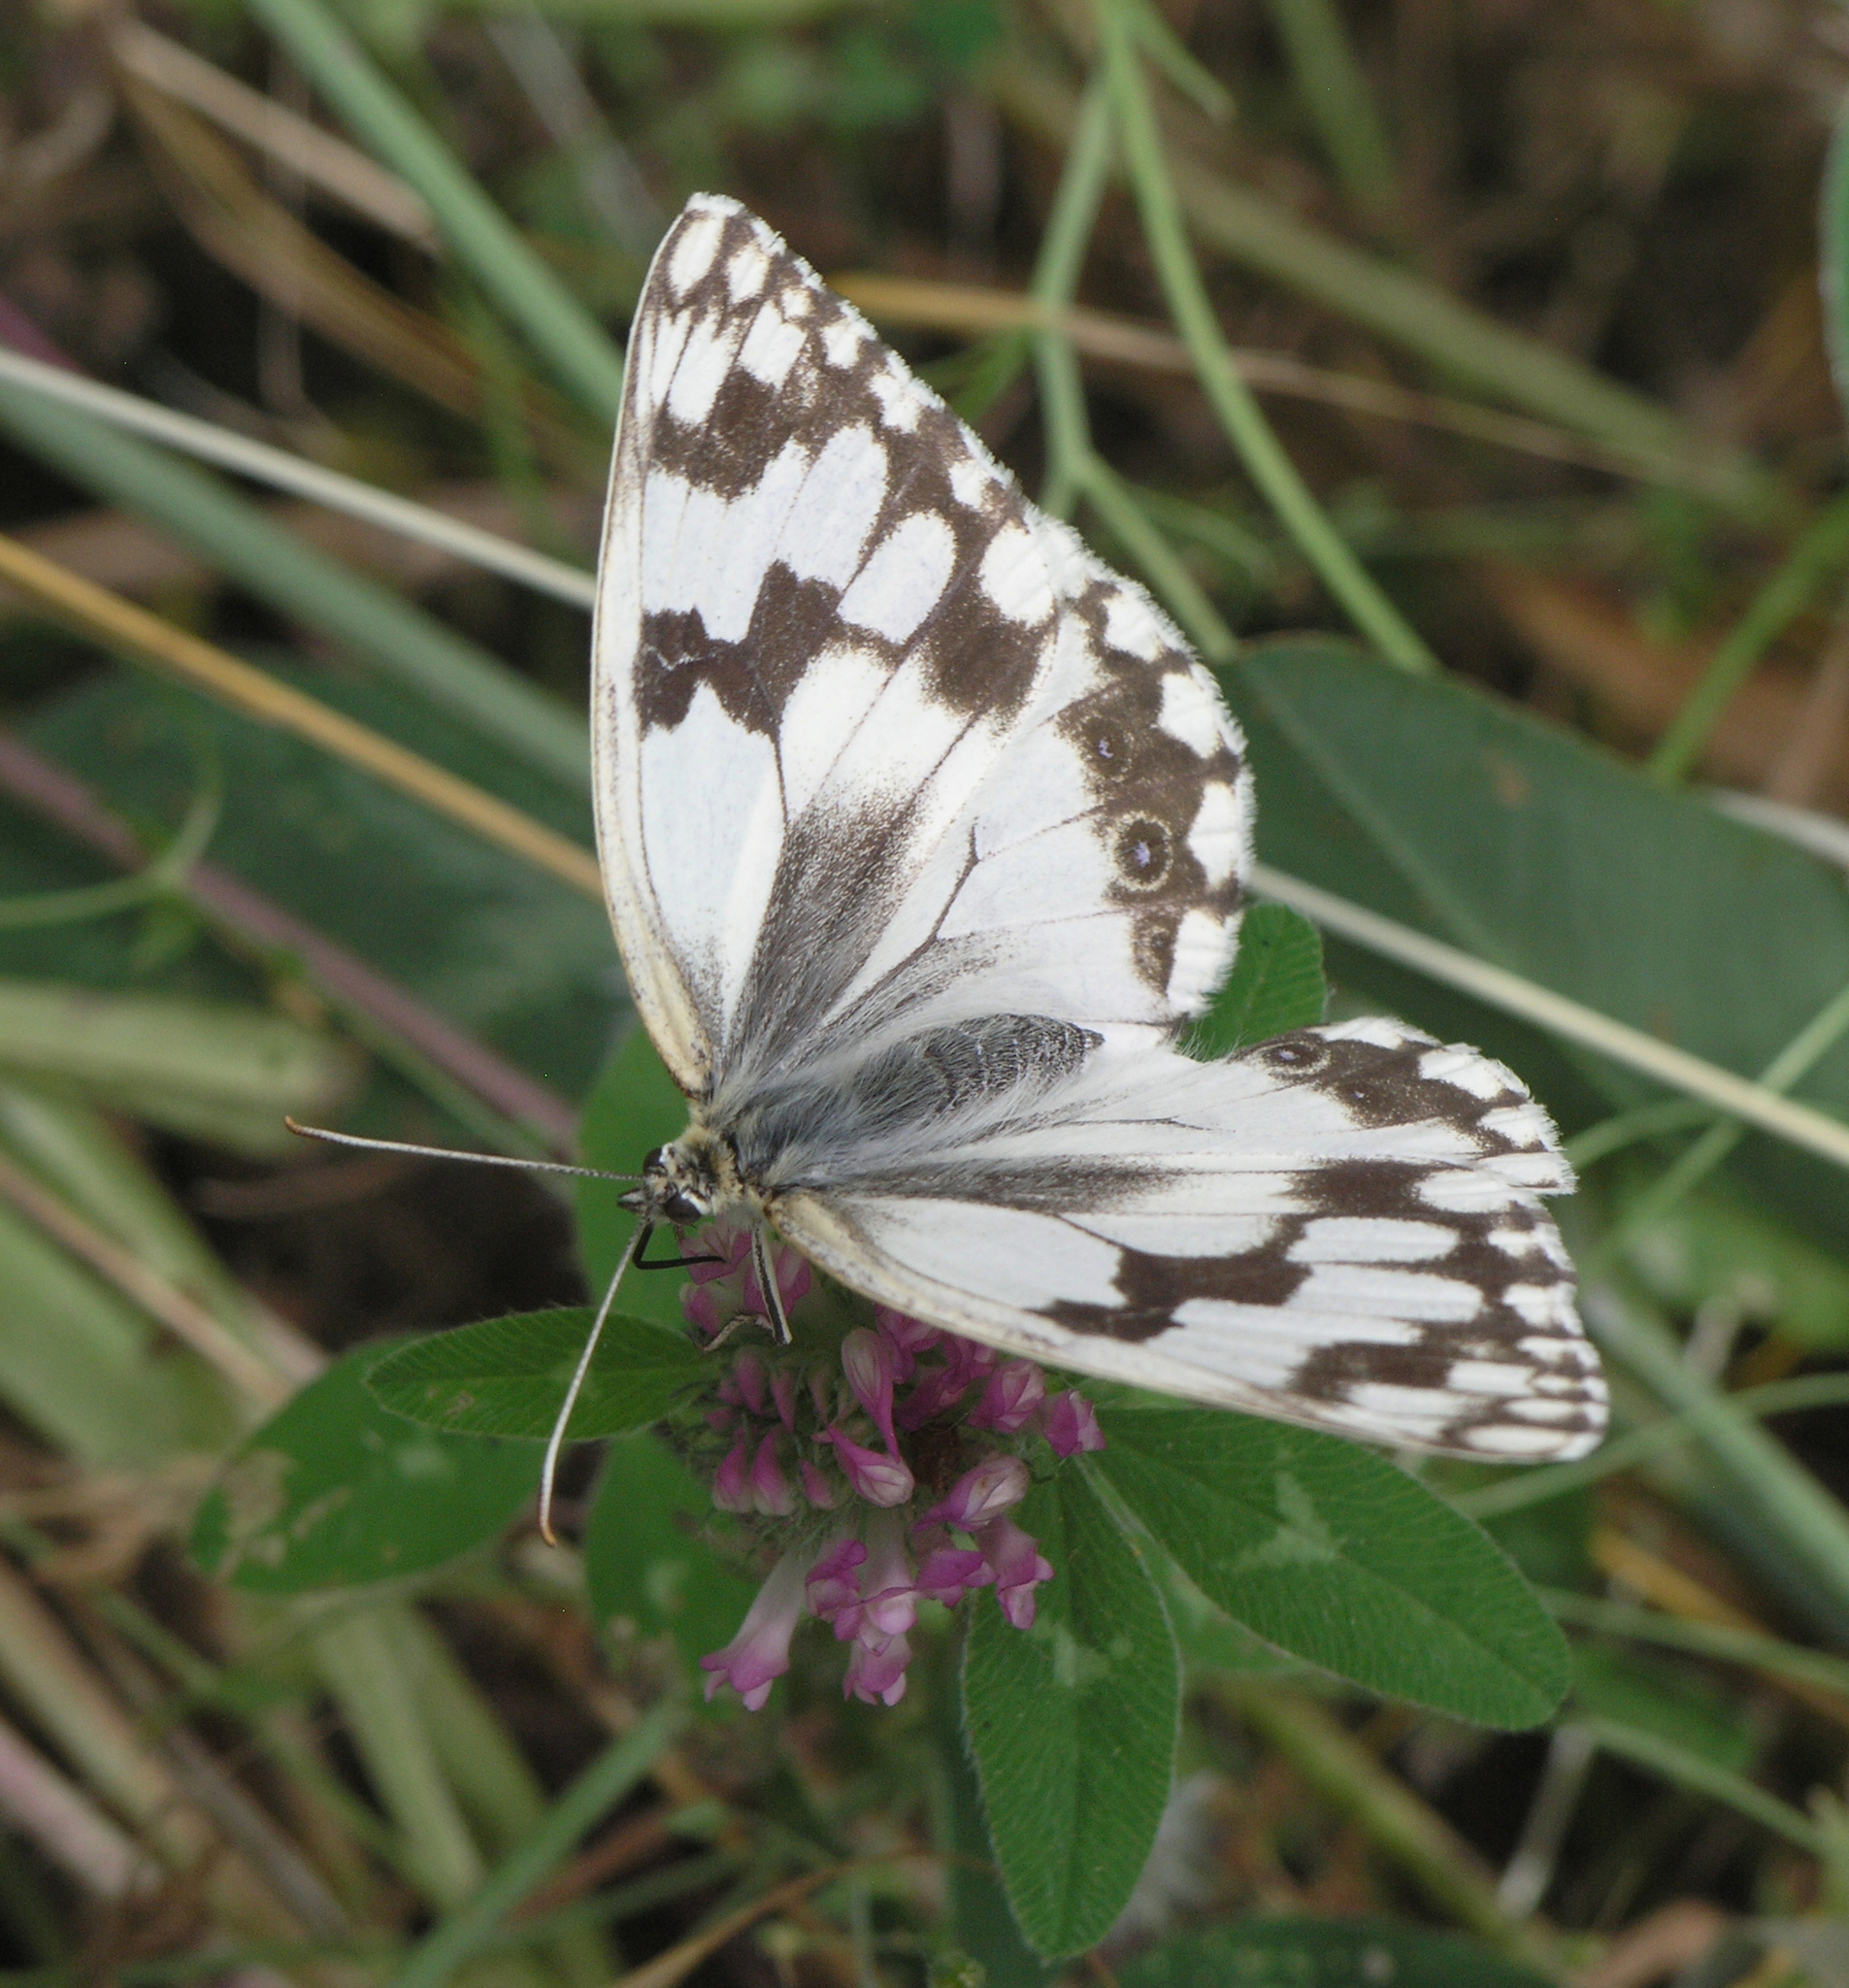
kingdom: Animalia
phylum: Arthropoda
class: Insecta
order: Lepidoptera
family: Nymphalidae
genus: Melanargia
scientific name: Melanargia lachesis
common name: Iberian marbled white
